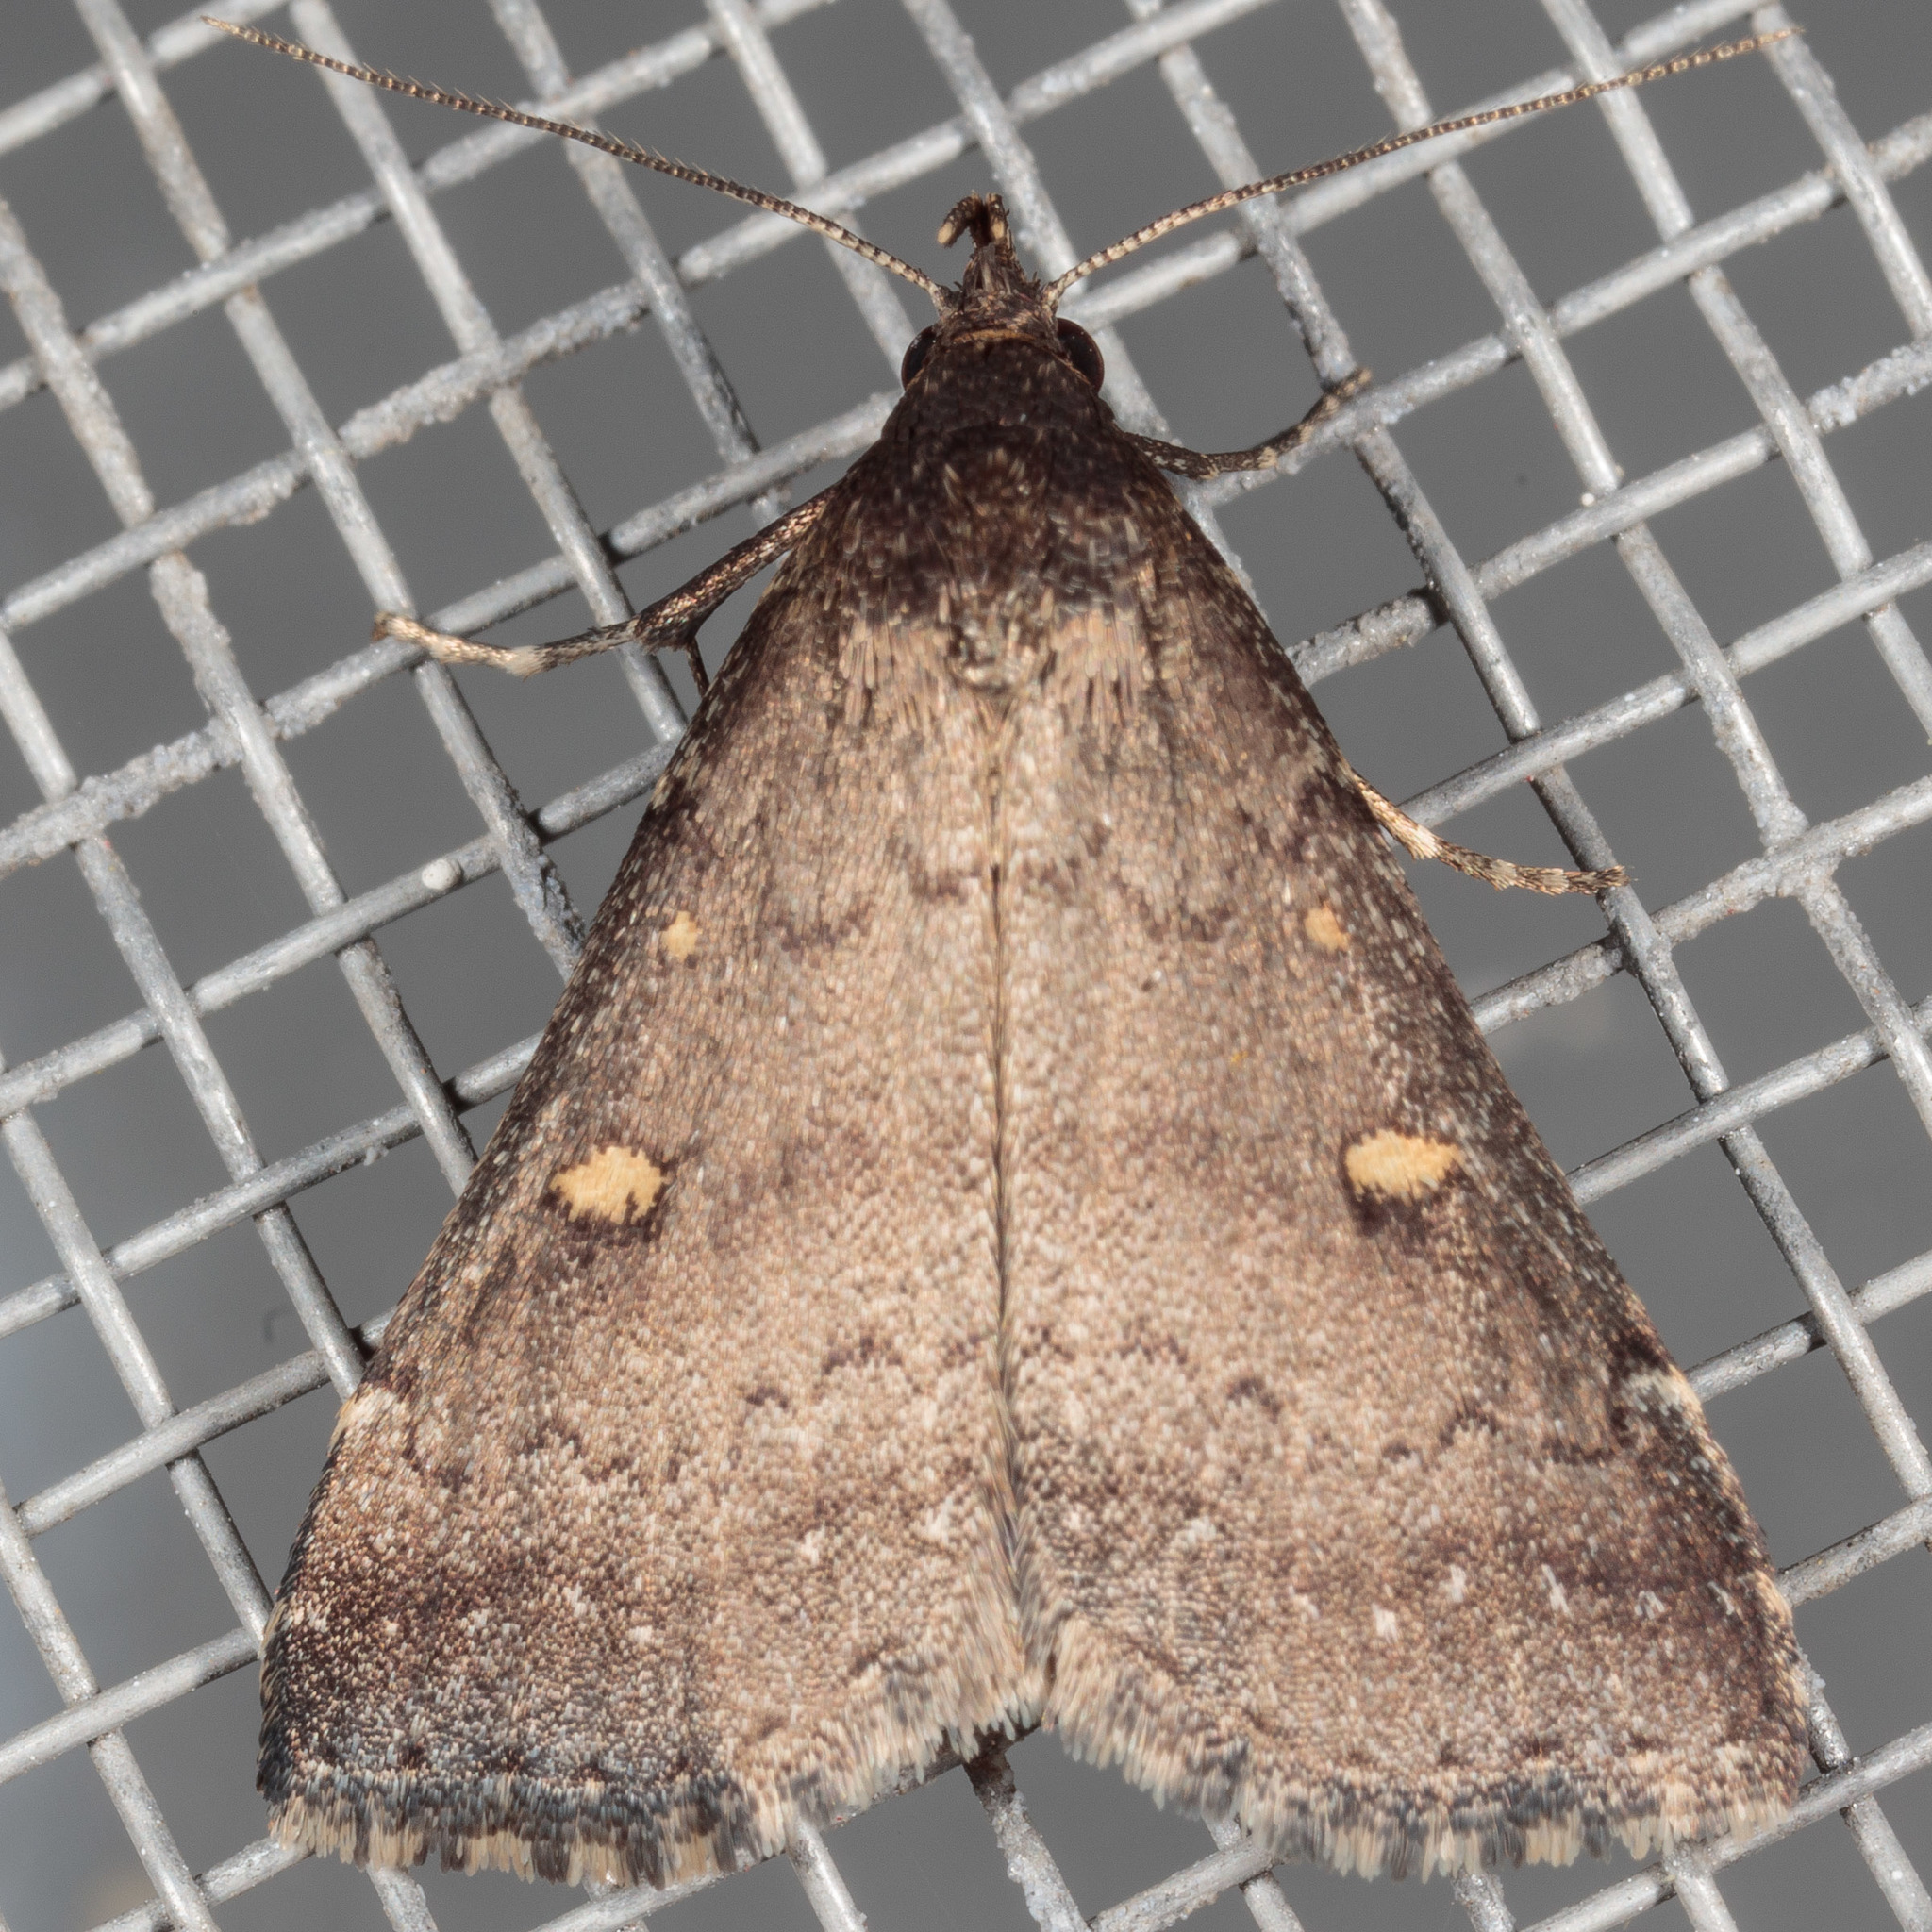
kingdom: Animalia
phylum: Arthropoda
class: Insecta
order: Lepidoptera
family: Erebidae
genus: Tetanolita
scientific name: Tetanolita mynesalis
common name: Smoky tetanolita moth
